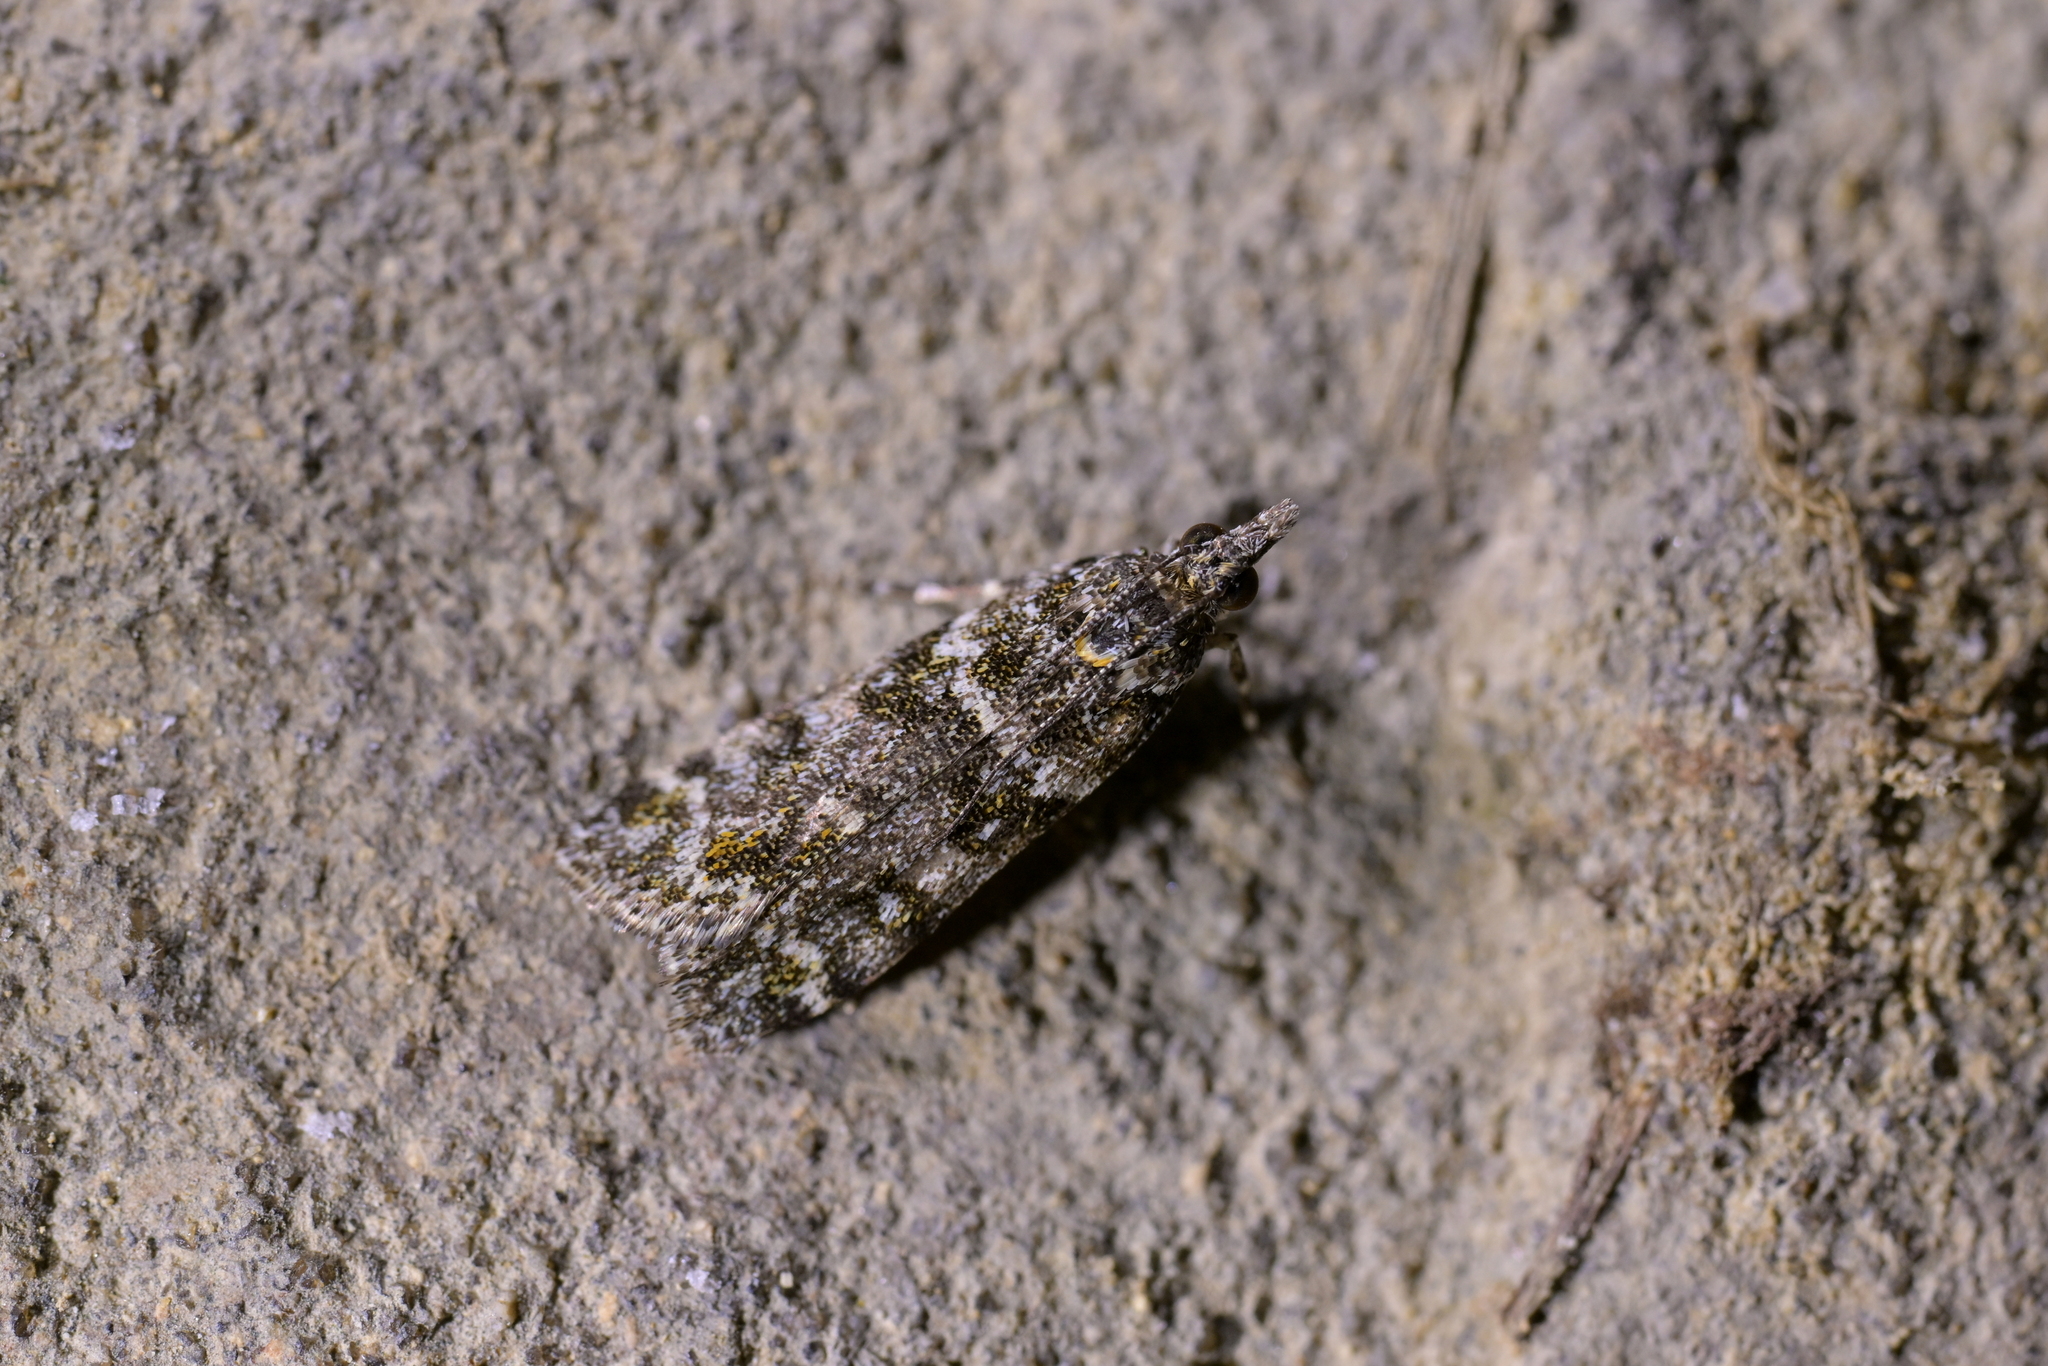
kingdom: Animalia
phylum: Arthropoda
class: Insecta
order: Lepidoptera
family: Crambidae
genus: Eudonia
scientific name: Eudonia
